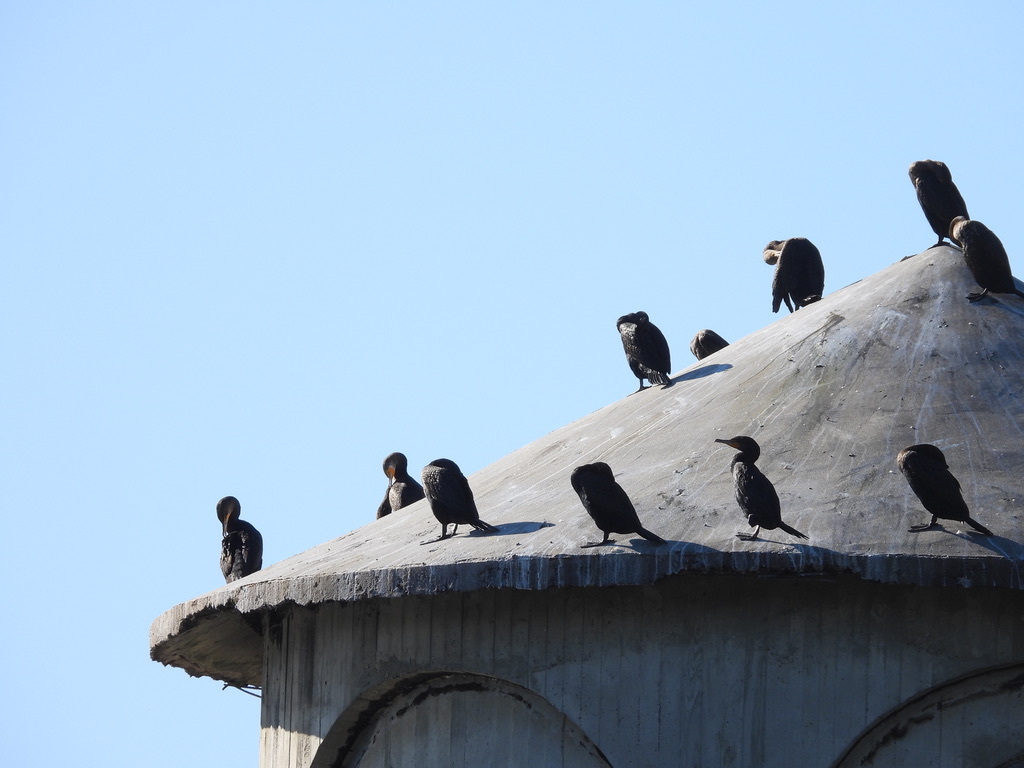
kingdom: Animalia
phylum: Chordata
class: Aves
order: Suliformes
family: Phalacrocoracidae
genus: Phalacrocorax
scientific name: Phalacrocorax auritus
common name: Double-crested cormorant
